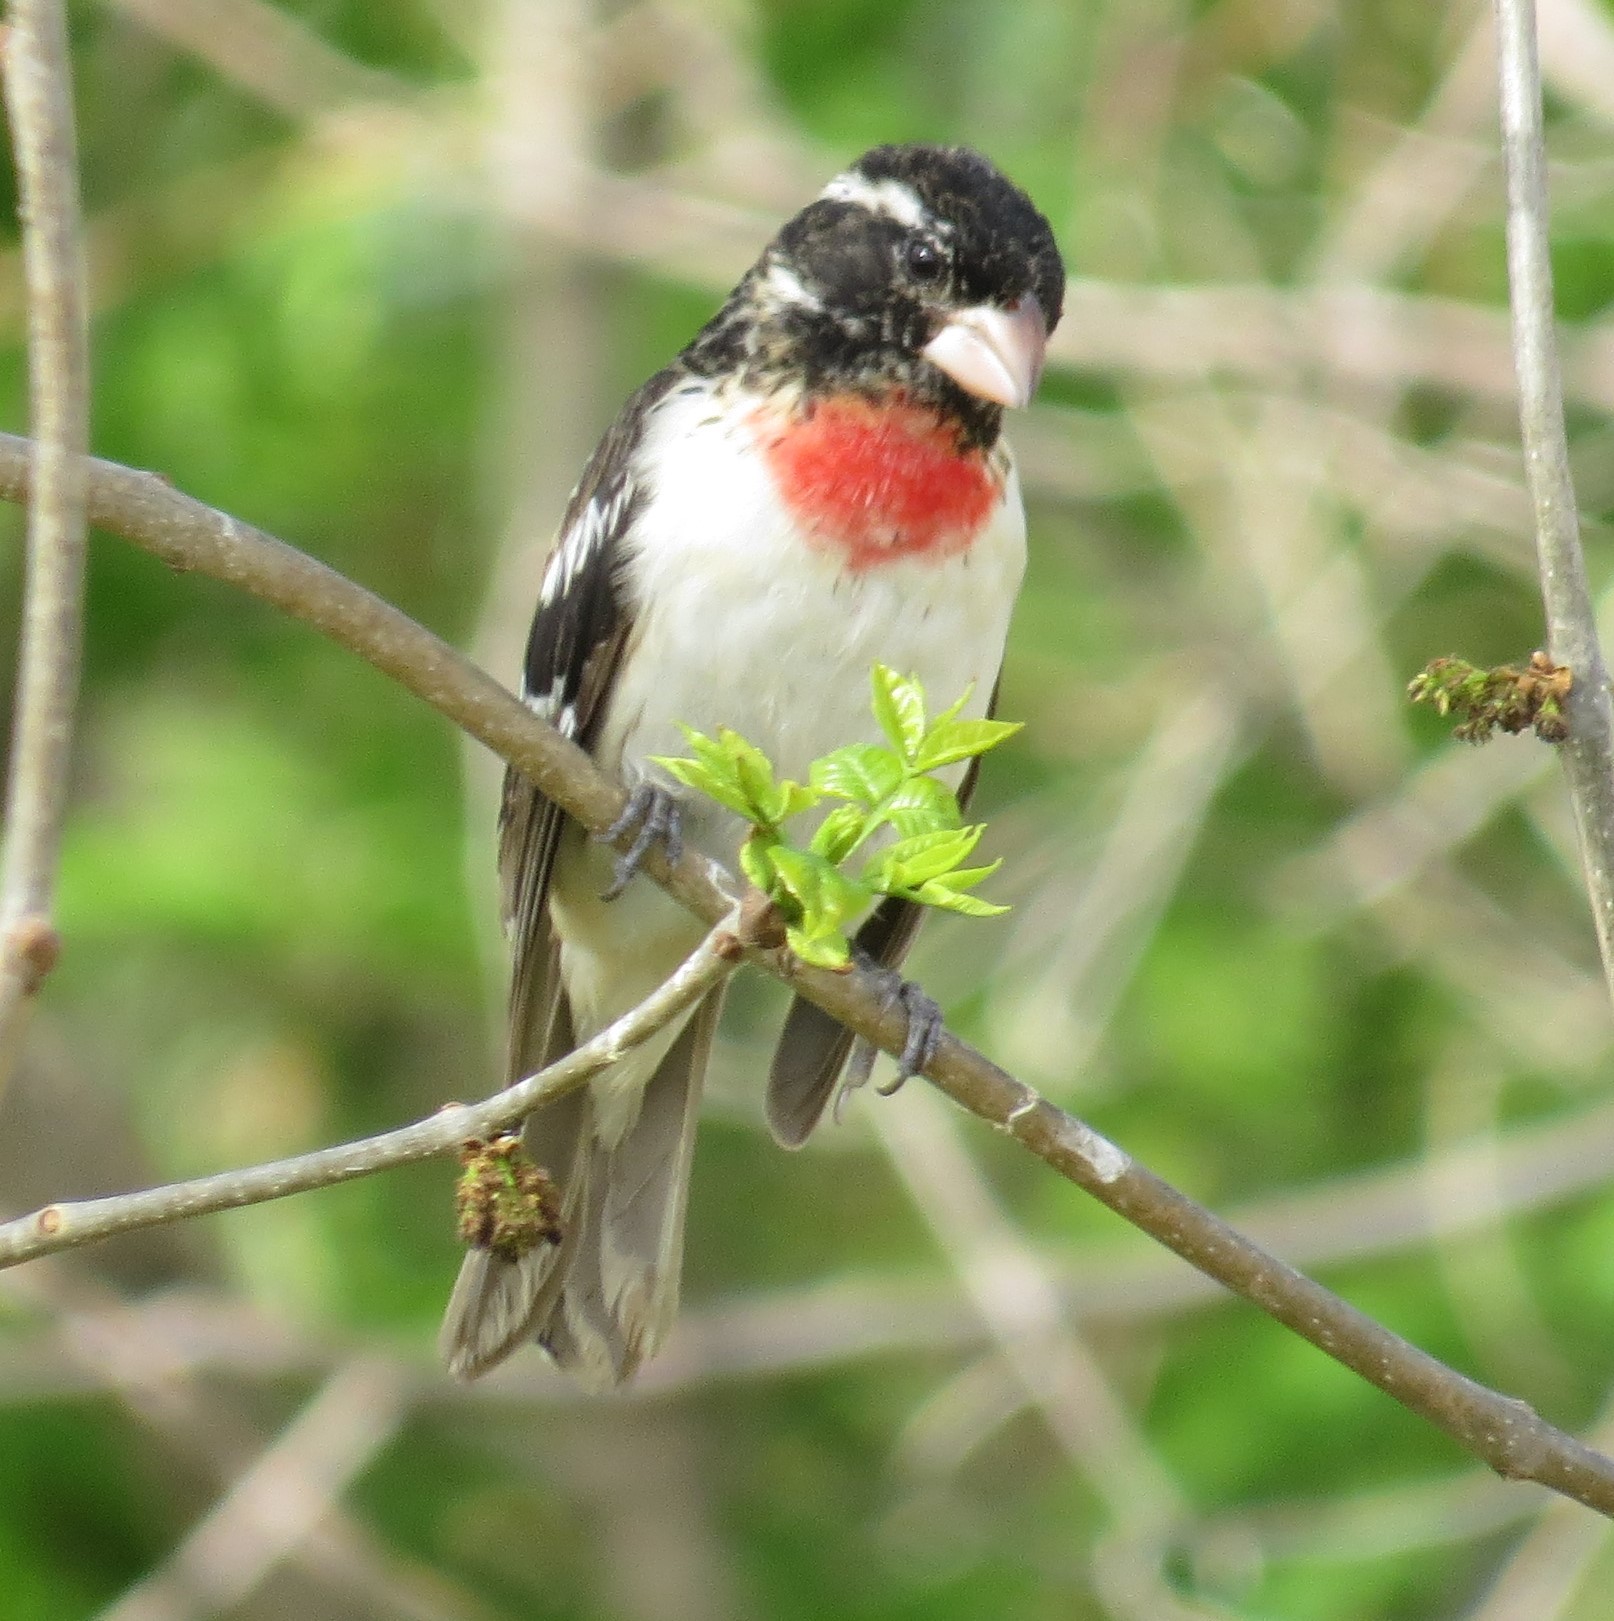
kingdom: Animalia
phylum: Chordata
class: Aves
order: Passeriformes
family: Cardinalidae
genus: Pheucticus
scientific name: Pheucticus ludovicianus
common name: Rose-breasted grosbeak
